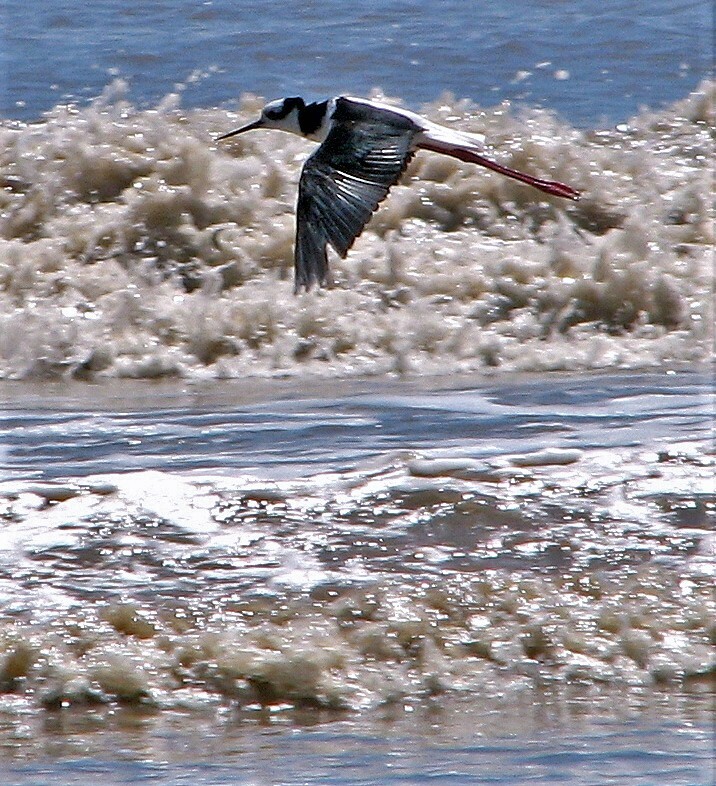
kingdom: Animalia
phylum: Chordata
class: Aves
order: Charadriiformes
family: Recurvirostridae
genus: Himantopus
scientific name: Himantopus mexicanus
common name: Black-necked stilt
